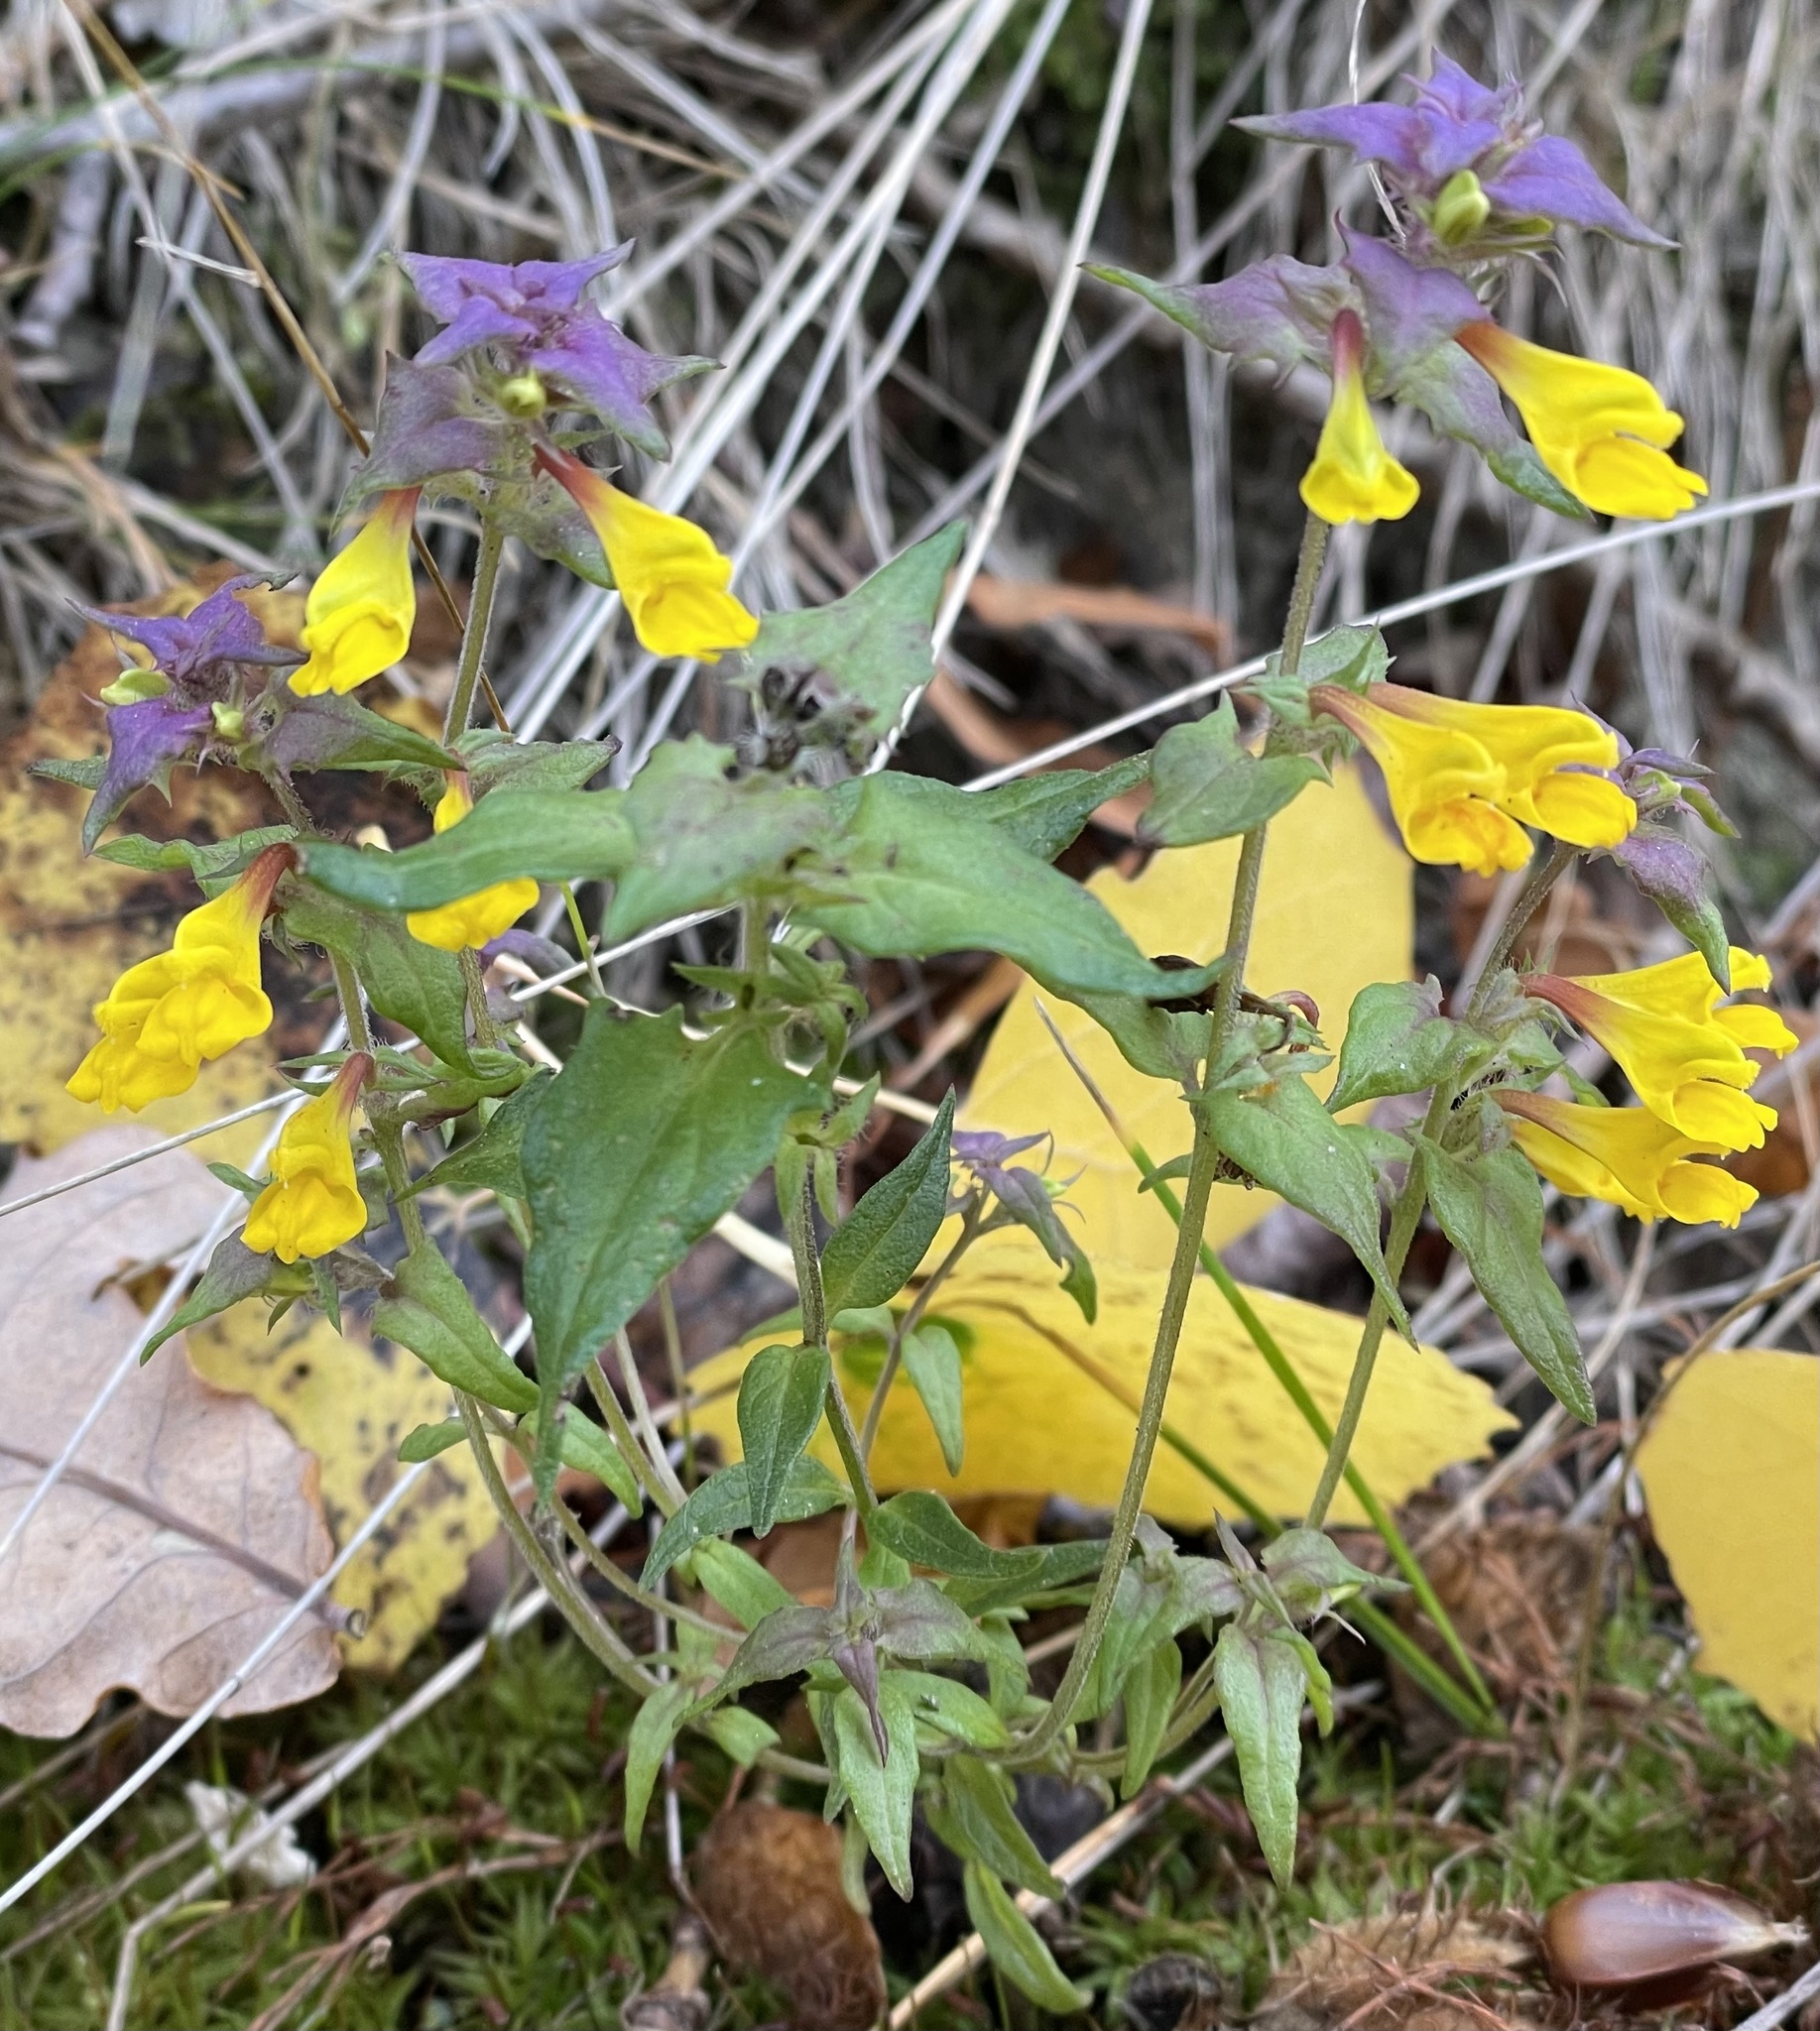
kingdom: Plantae
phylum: Tracheophyta
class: Magnoliopsida
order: Lamiales
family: Orobanchaceae
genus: Melampyrum
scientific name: Melampyrum nemorosum
